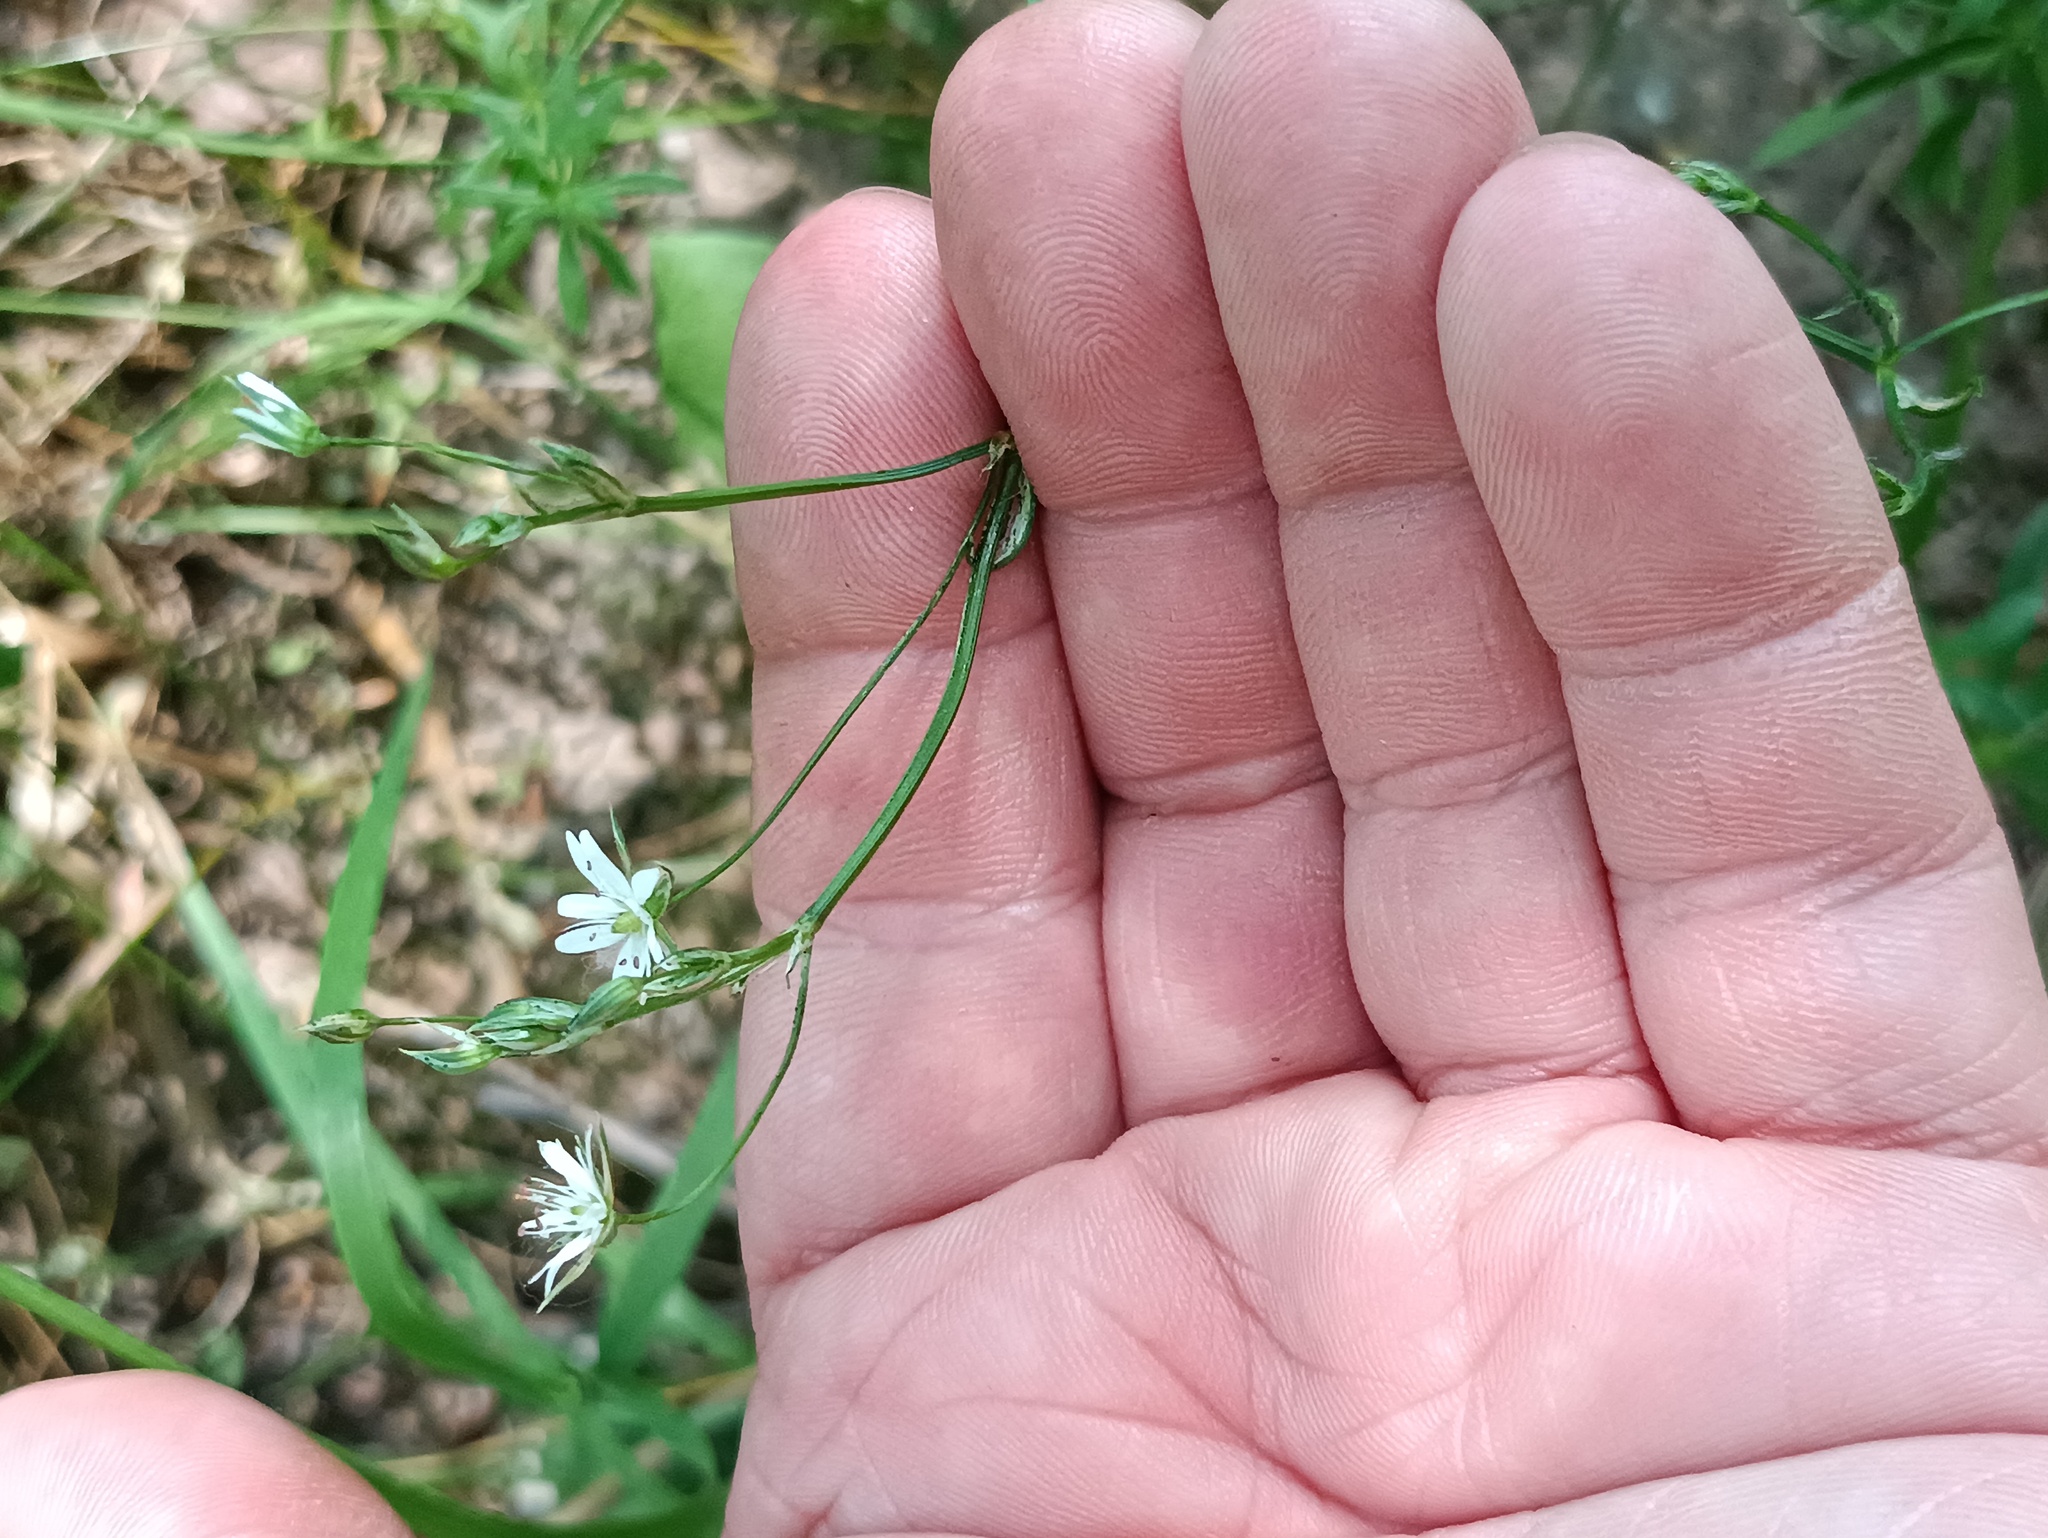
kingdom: Plantae
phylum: Tracheophyta
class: Magnoliopsida
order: Caryophyllales
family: Caryophyllaceae
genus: Stellaria
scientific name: Stellaria graminea
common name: Grass-like starwort
